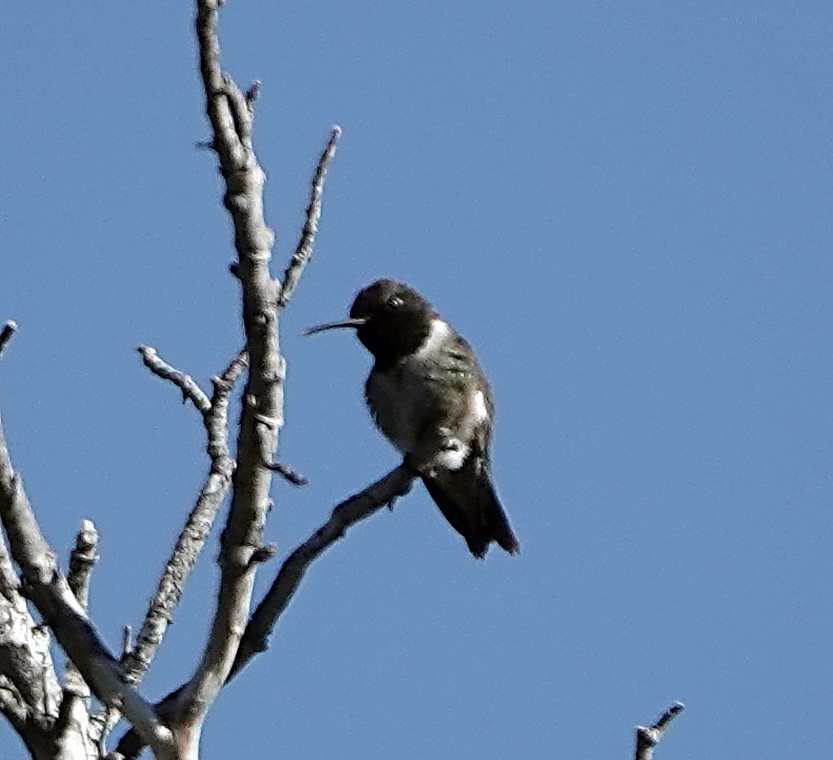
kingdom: Animalia
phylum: Chordata
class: Aves
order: Apodiformes
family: Trochilidae
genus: Archilochus
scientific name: Archilochus alexandri
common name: Black-chinned hummingbird
